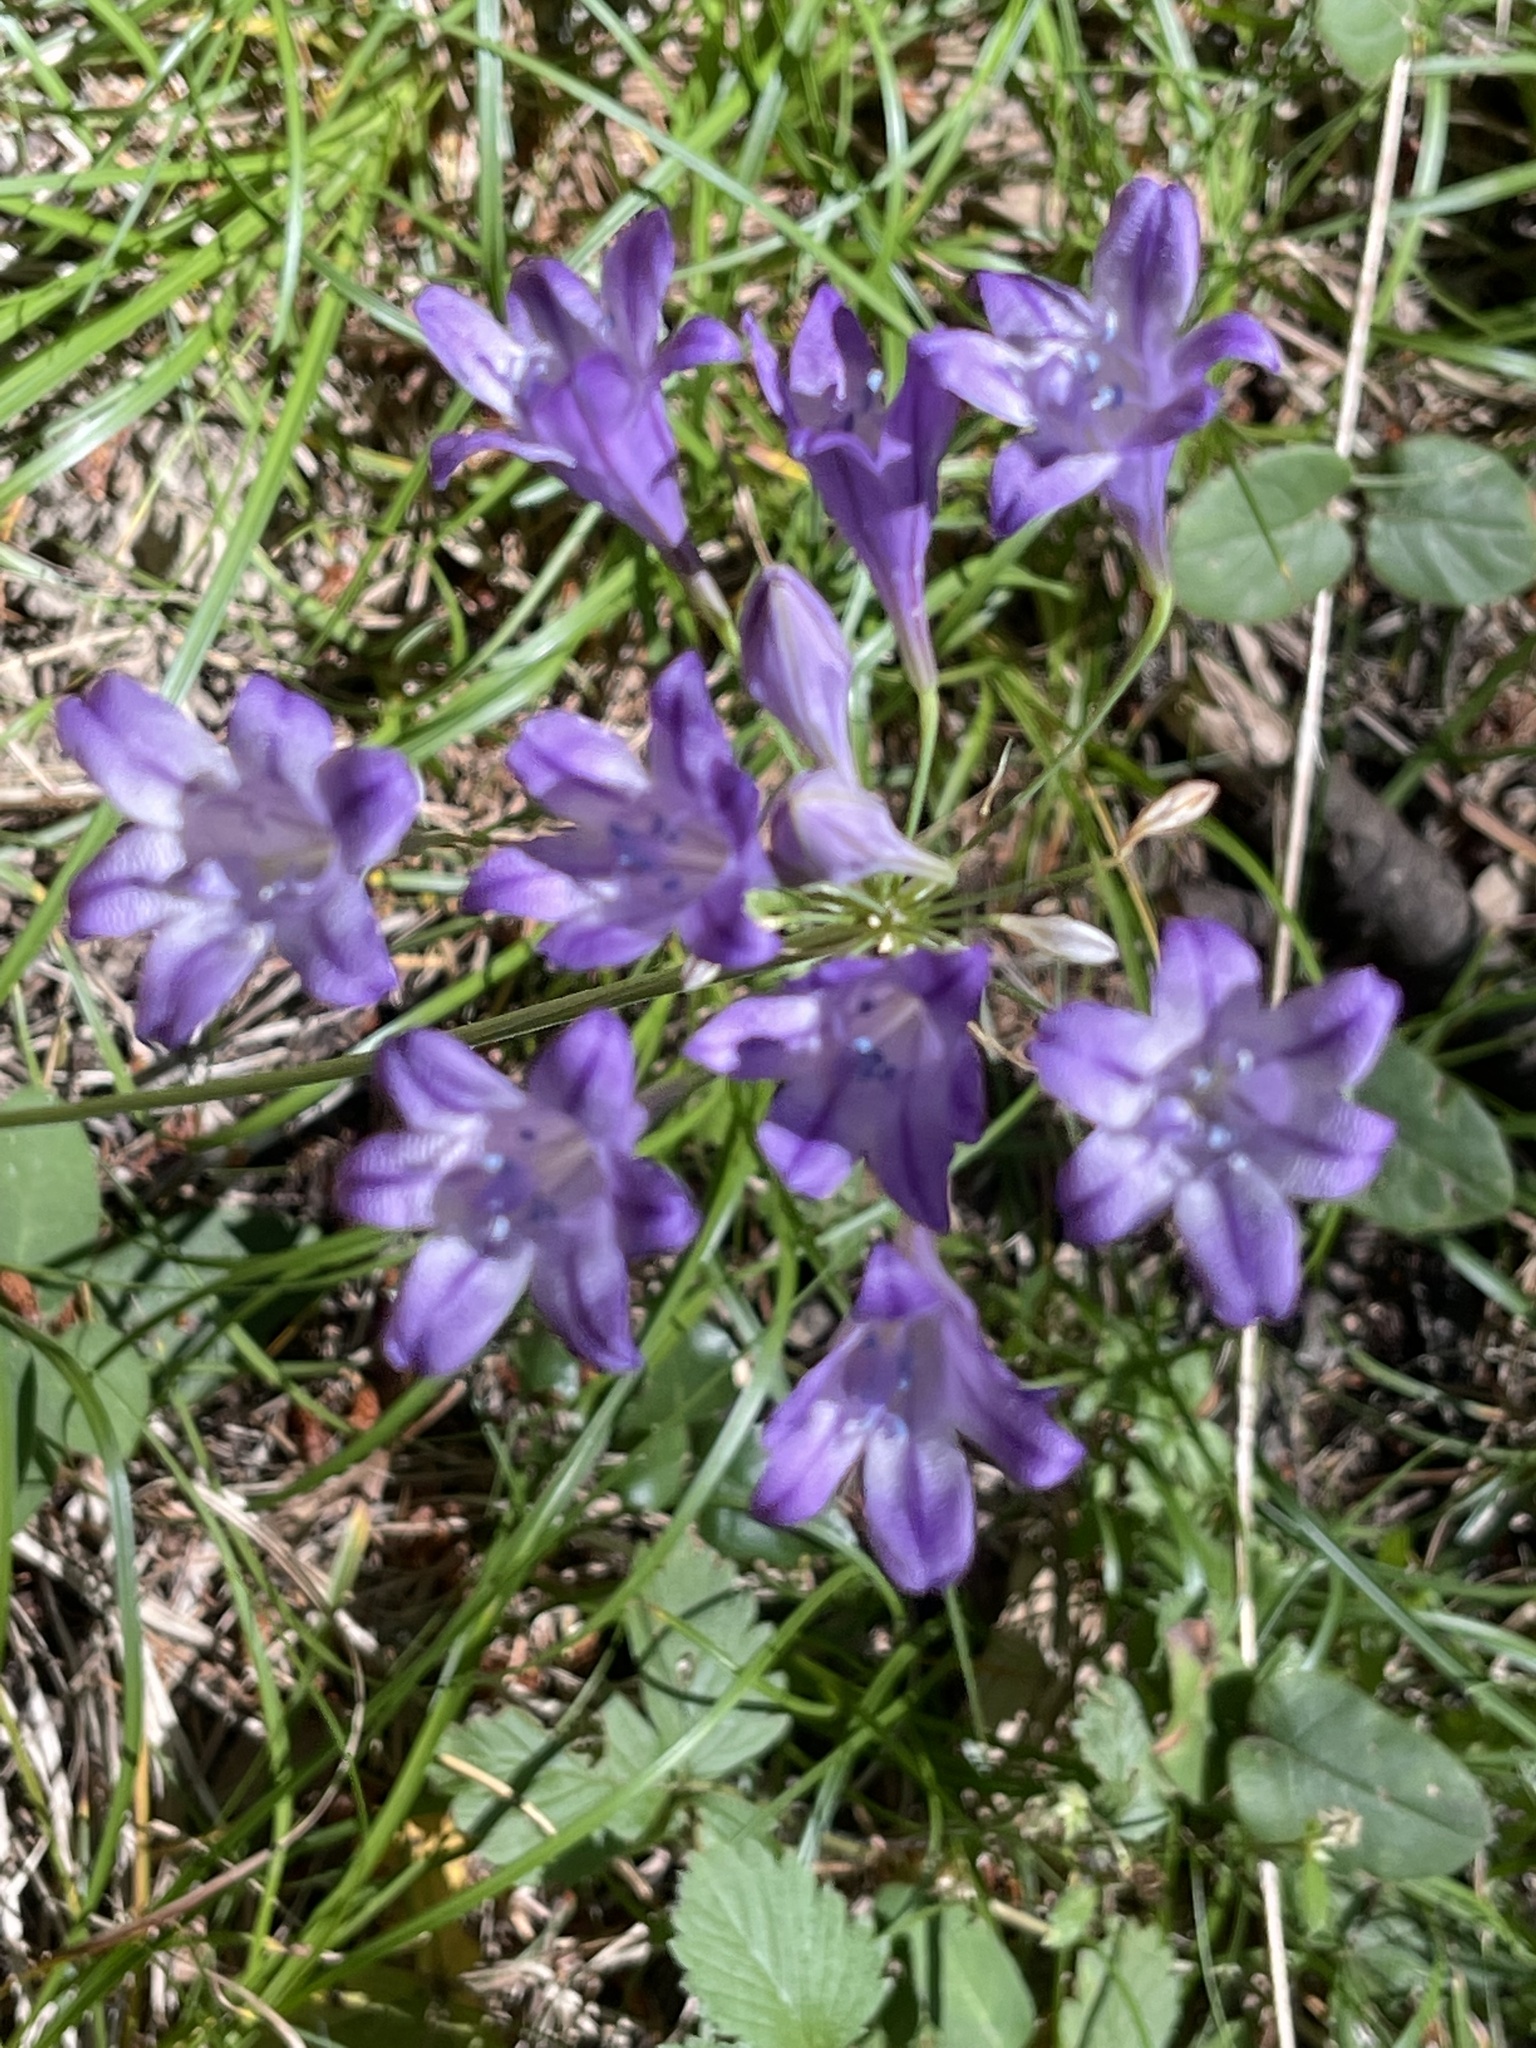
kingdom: Plantae
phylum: Tracheophyta
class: Liliopsida
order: Asparagales
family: Asparagaceae
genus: Triteleia
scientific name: Triteleia laxa
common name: Triplet-lily
